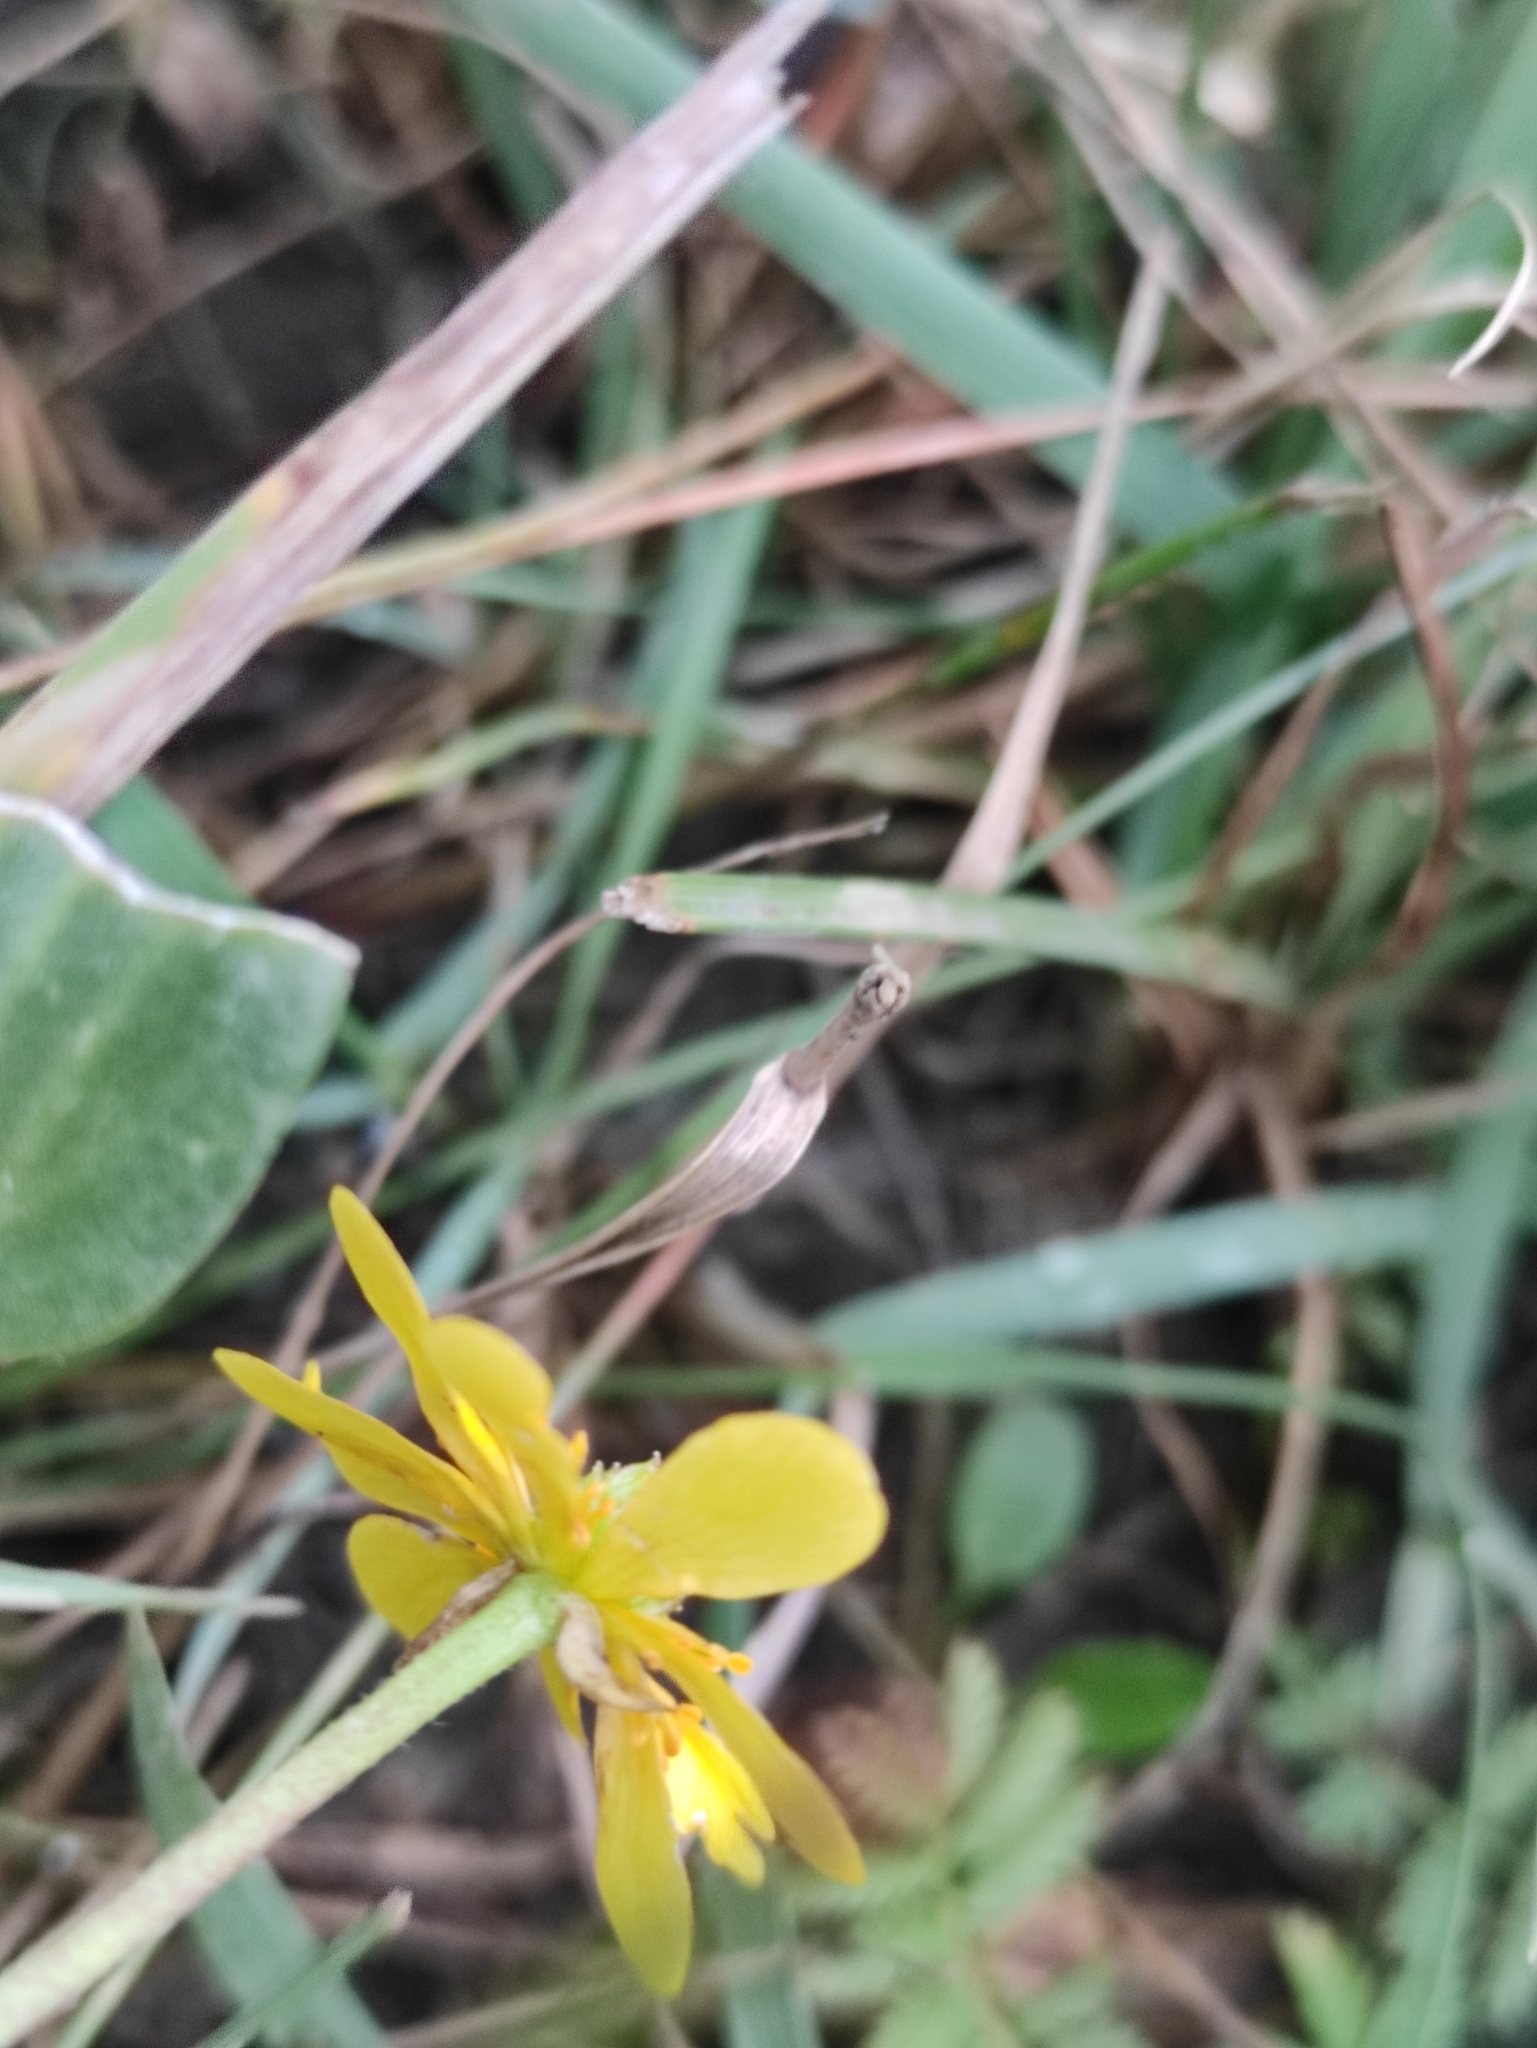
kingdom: Plantae
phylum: Tracheophyta
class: Magnoliopsida
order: Ranunculales
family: Ranunculaceae
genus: Halerpestes
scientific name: Halerpestes ruthenica
